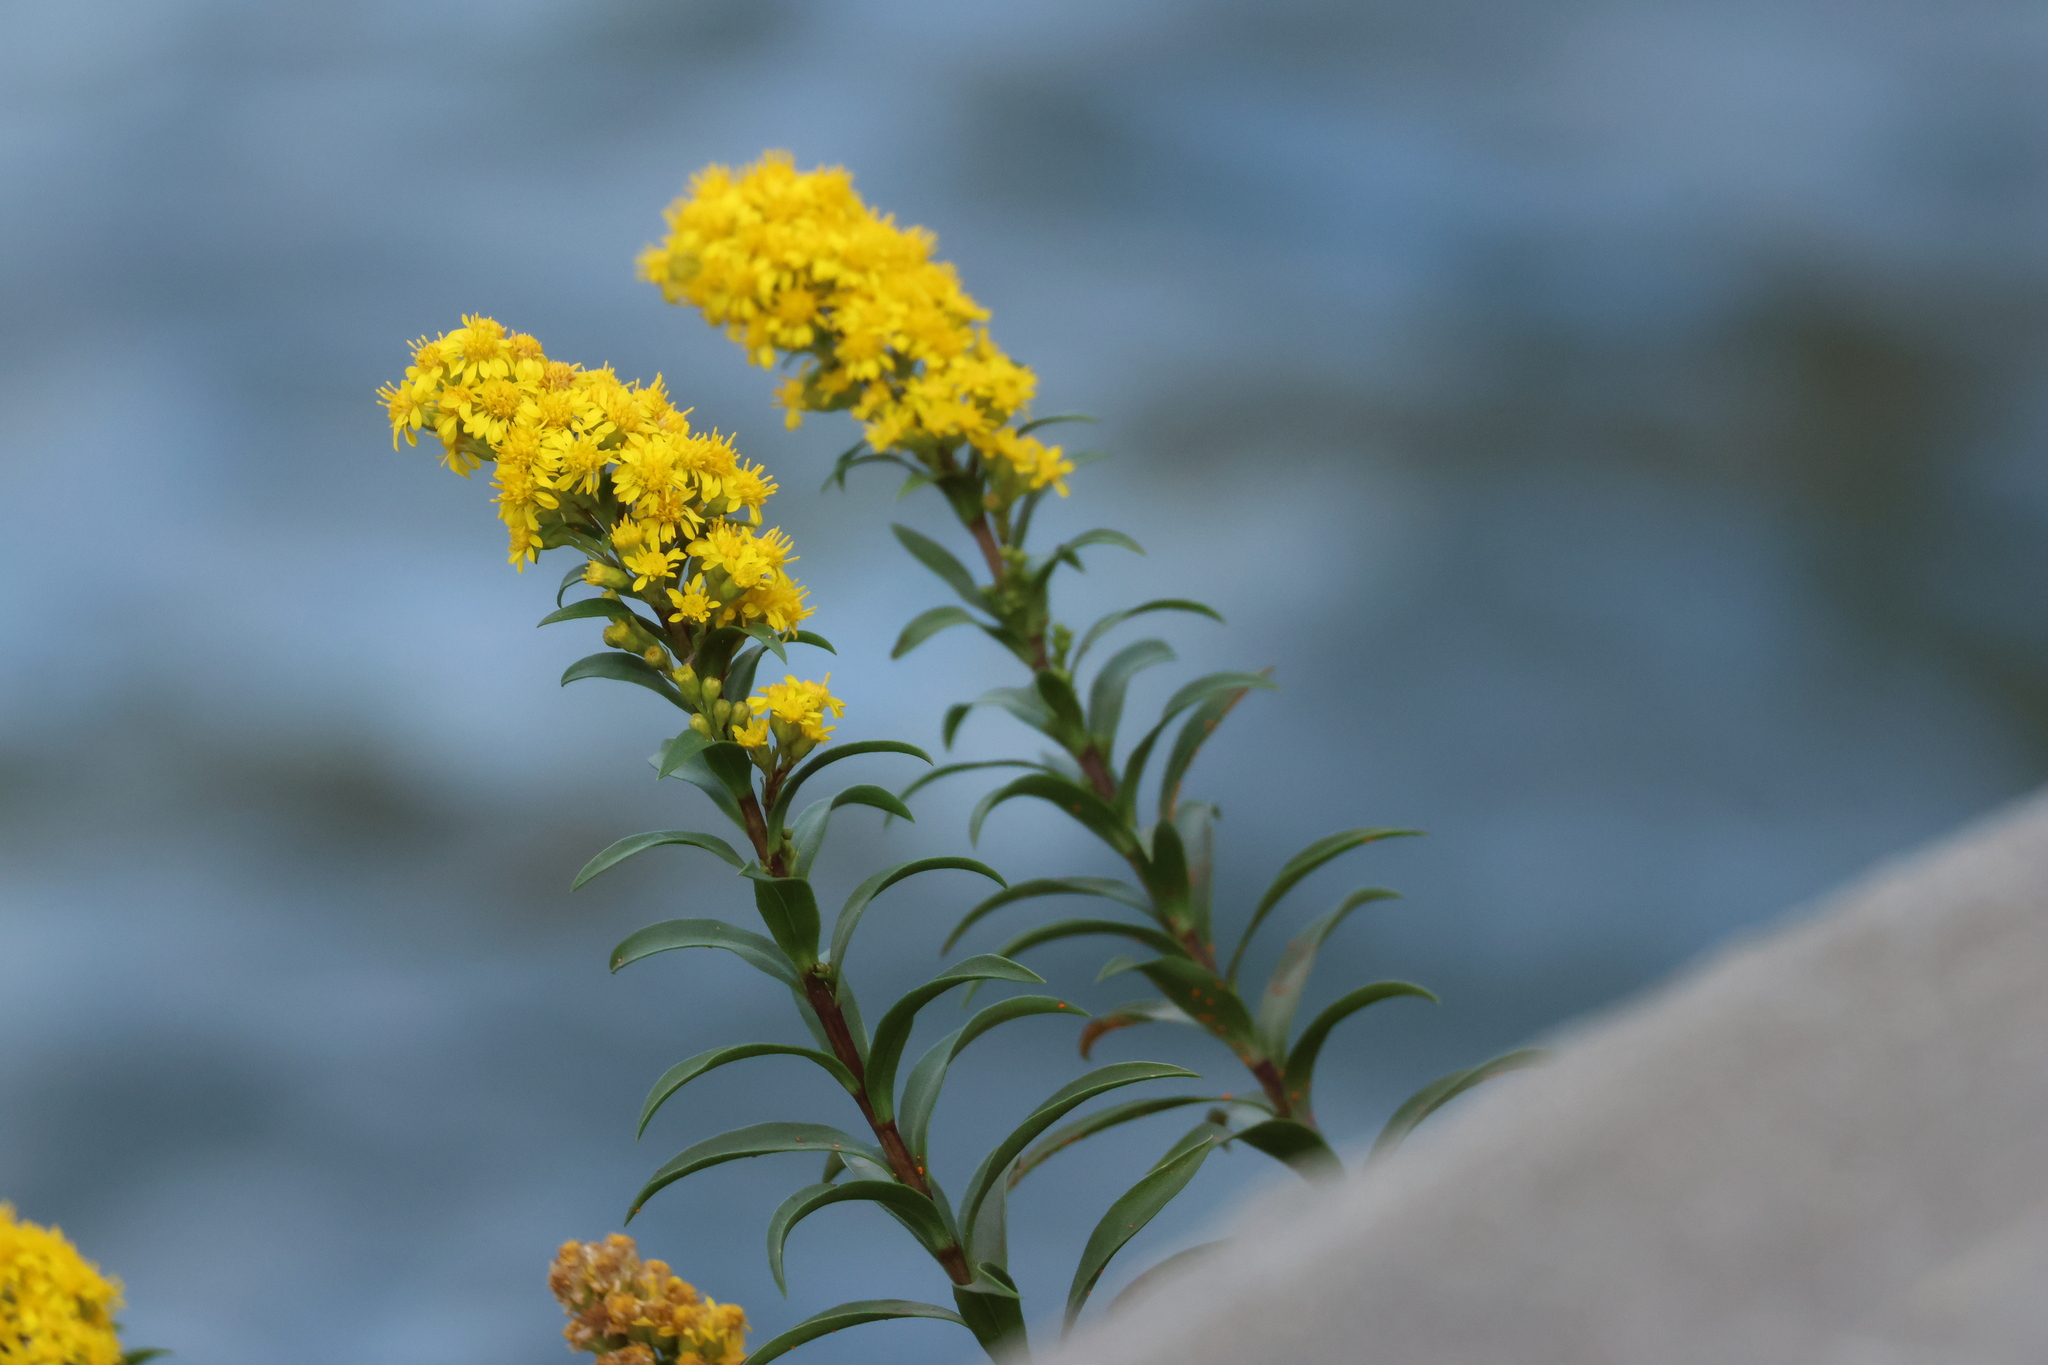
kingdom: Plantae
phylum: Tracheophyta
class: Magnoliopsida
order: Asterales
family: Asteraceae
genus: Solidago
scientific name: Solidago sempervirens
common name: Salt-marsh goldenrod
